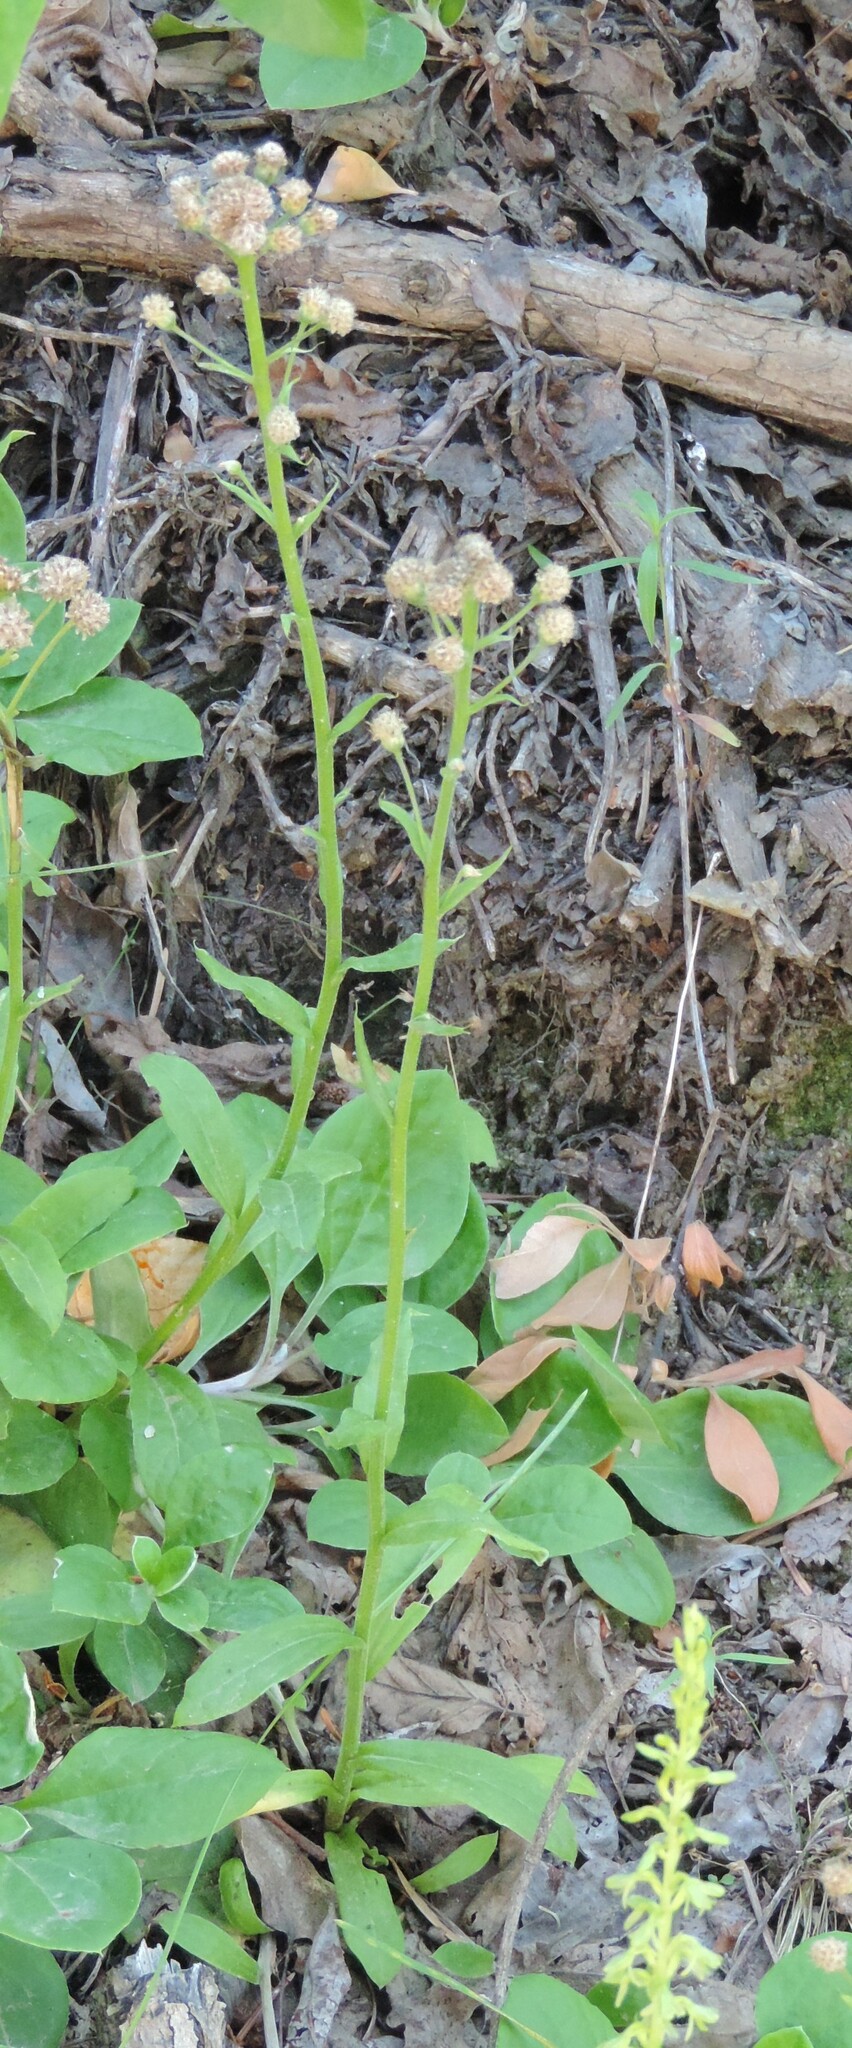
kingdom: Plantae
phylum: Tracheophyta
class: Magnoliopsida
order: Asterales
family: Asteraceae
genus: Antennaria
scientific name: Antennaria racemosa
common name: Racemose pussytoes
